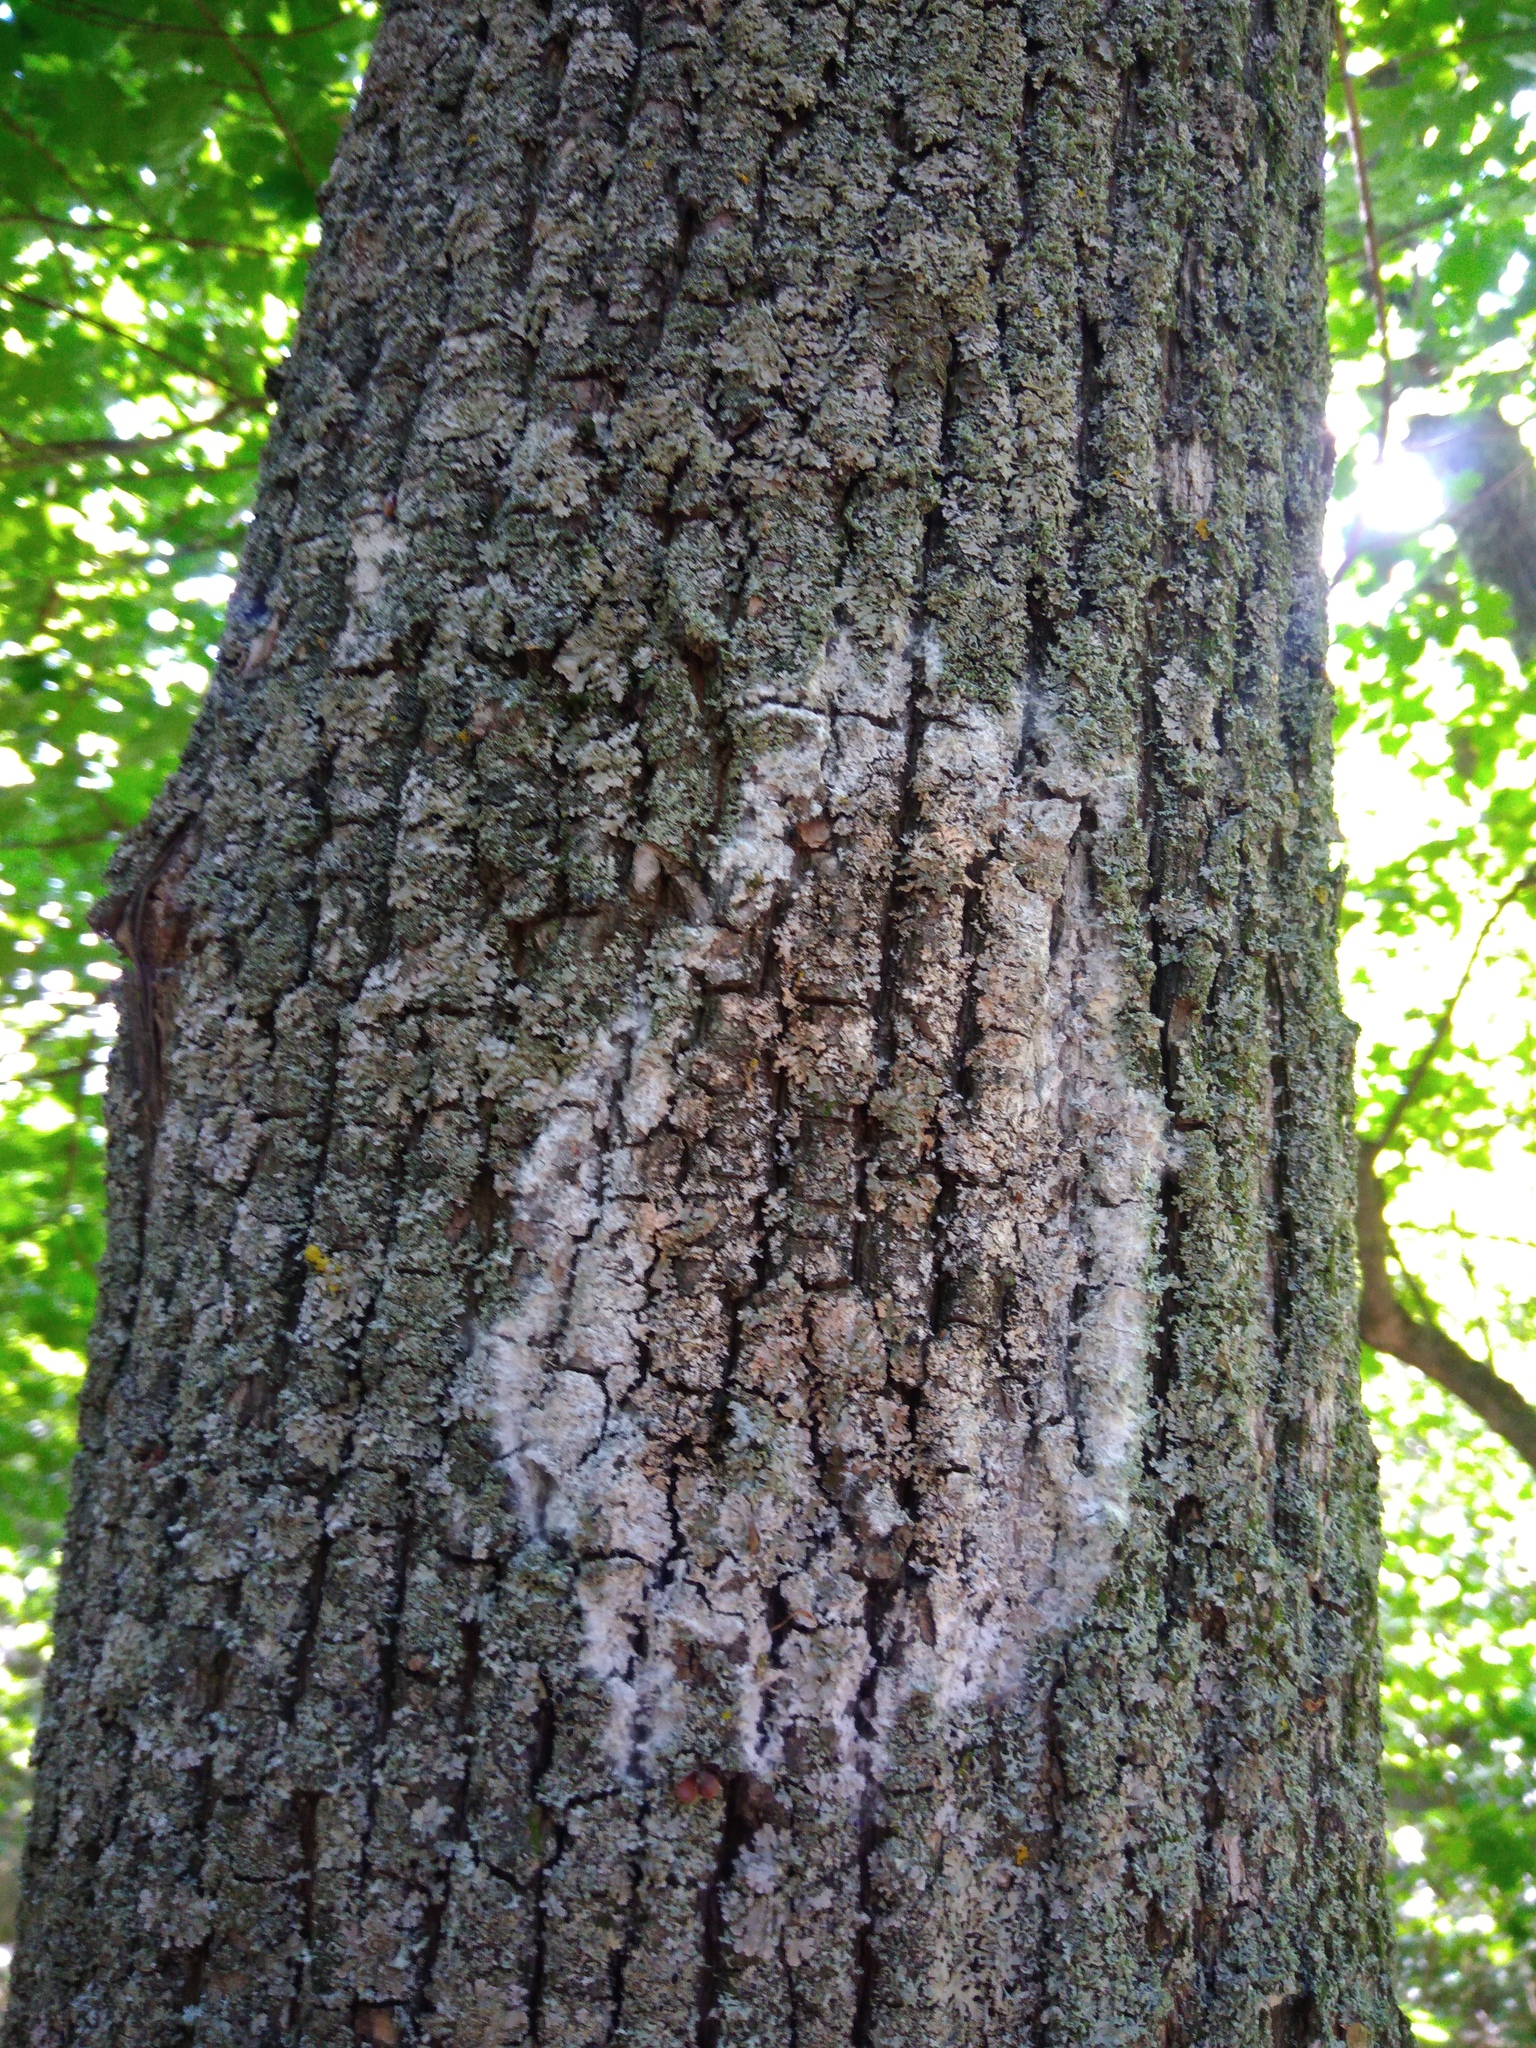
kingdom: Fungi
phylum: Basidiomycota
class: Agaricomycetes
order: Atheliales
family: Atheliaceae
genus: Athelia
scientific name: Athelia arachnoidea
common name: Candelabra duster
